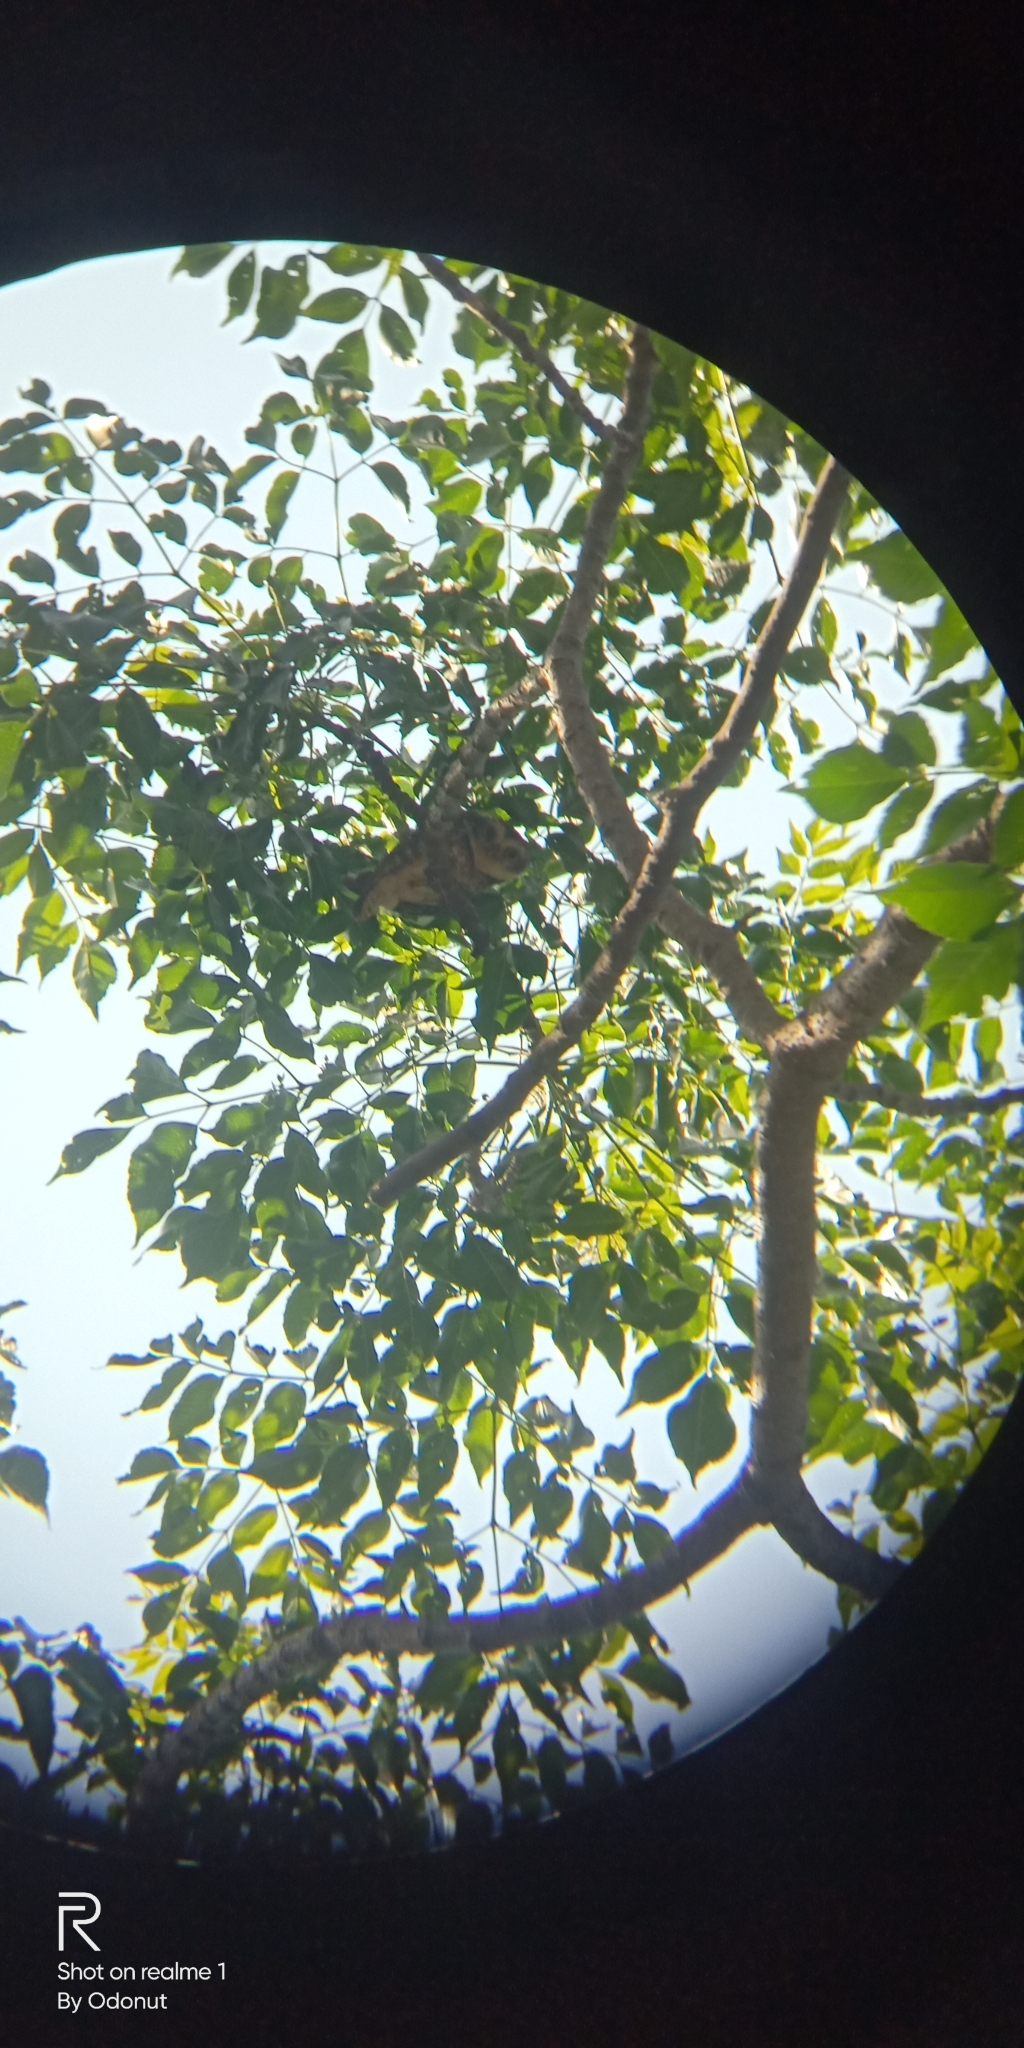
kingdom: Animalia
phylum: Chordata
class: Aves
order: Strigiformes
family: Strigidae
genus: Athene
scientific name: Athene brama
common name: Spotted owlet
